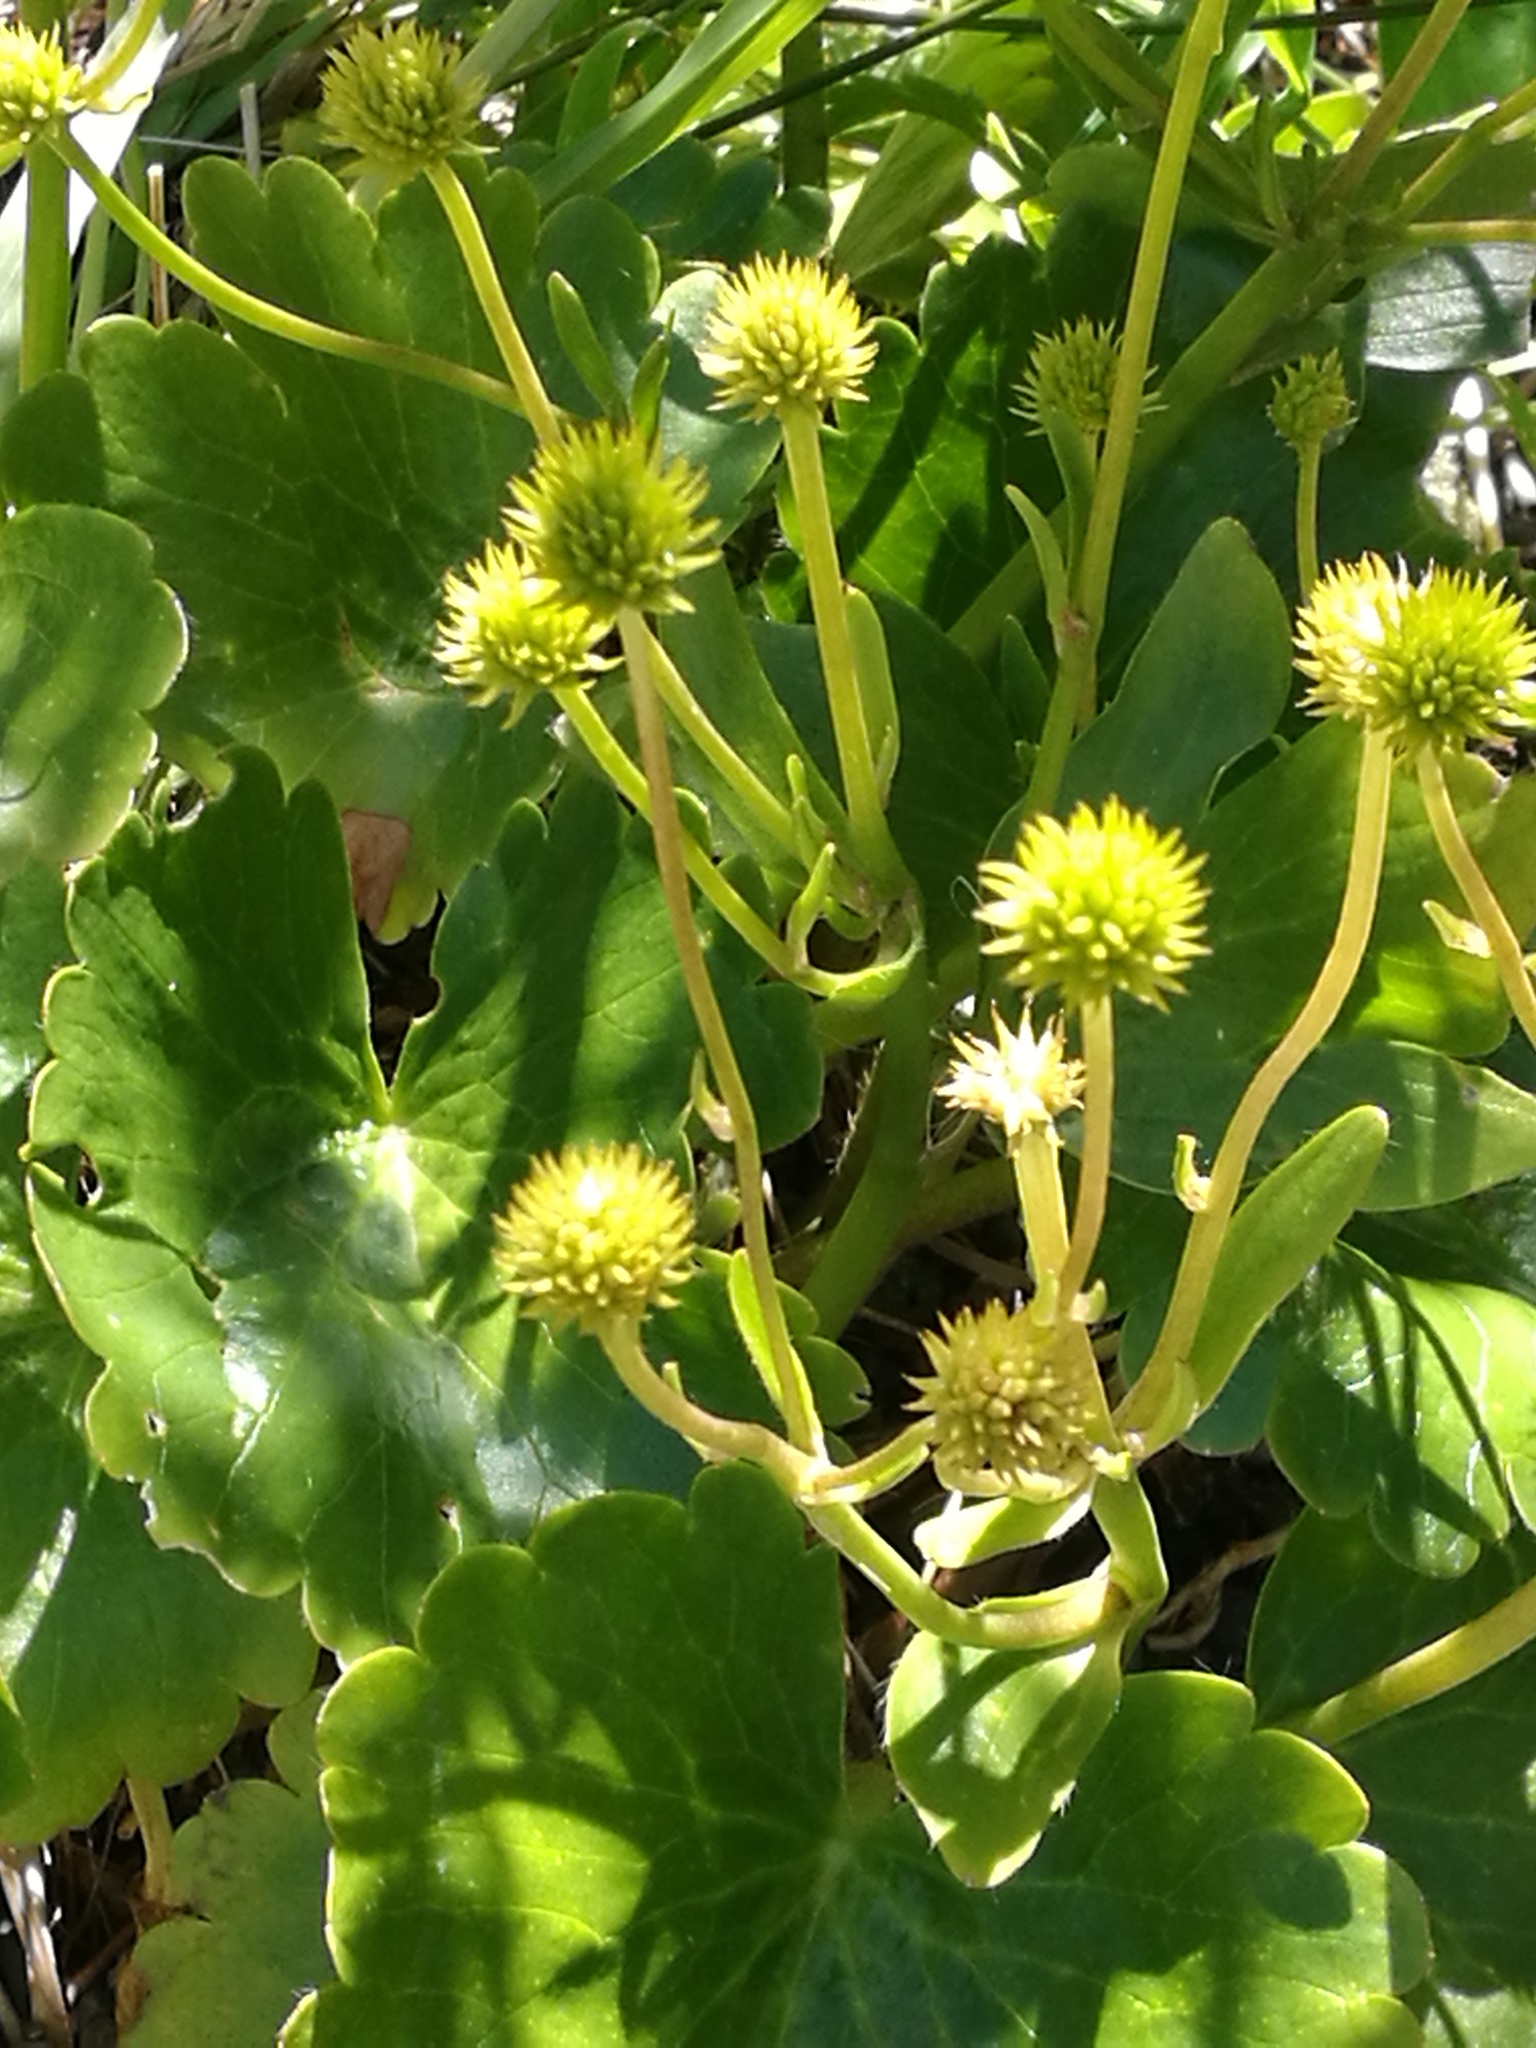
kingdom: Plantae
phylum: Tracheophyta
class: Magnoliopsida
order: Ranunculales
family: Ranunculaceae
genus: Ranunculus
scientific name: Ranunculus insignis
